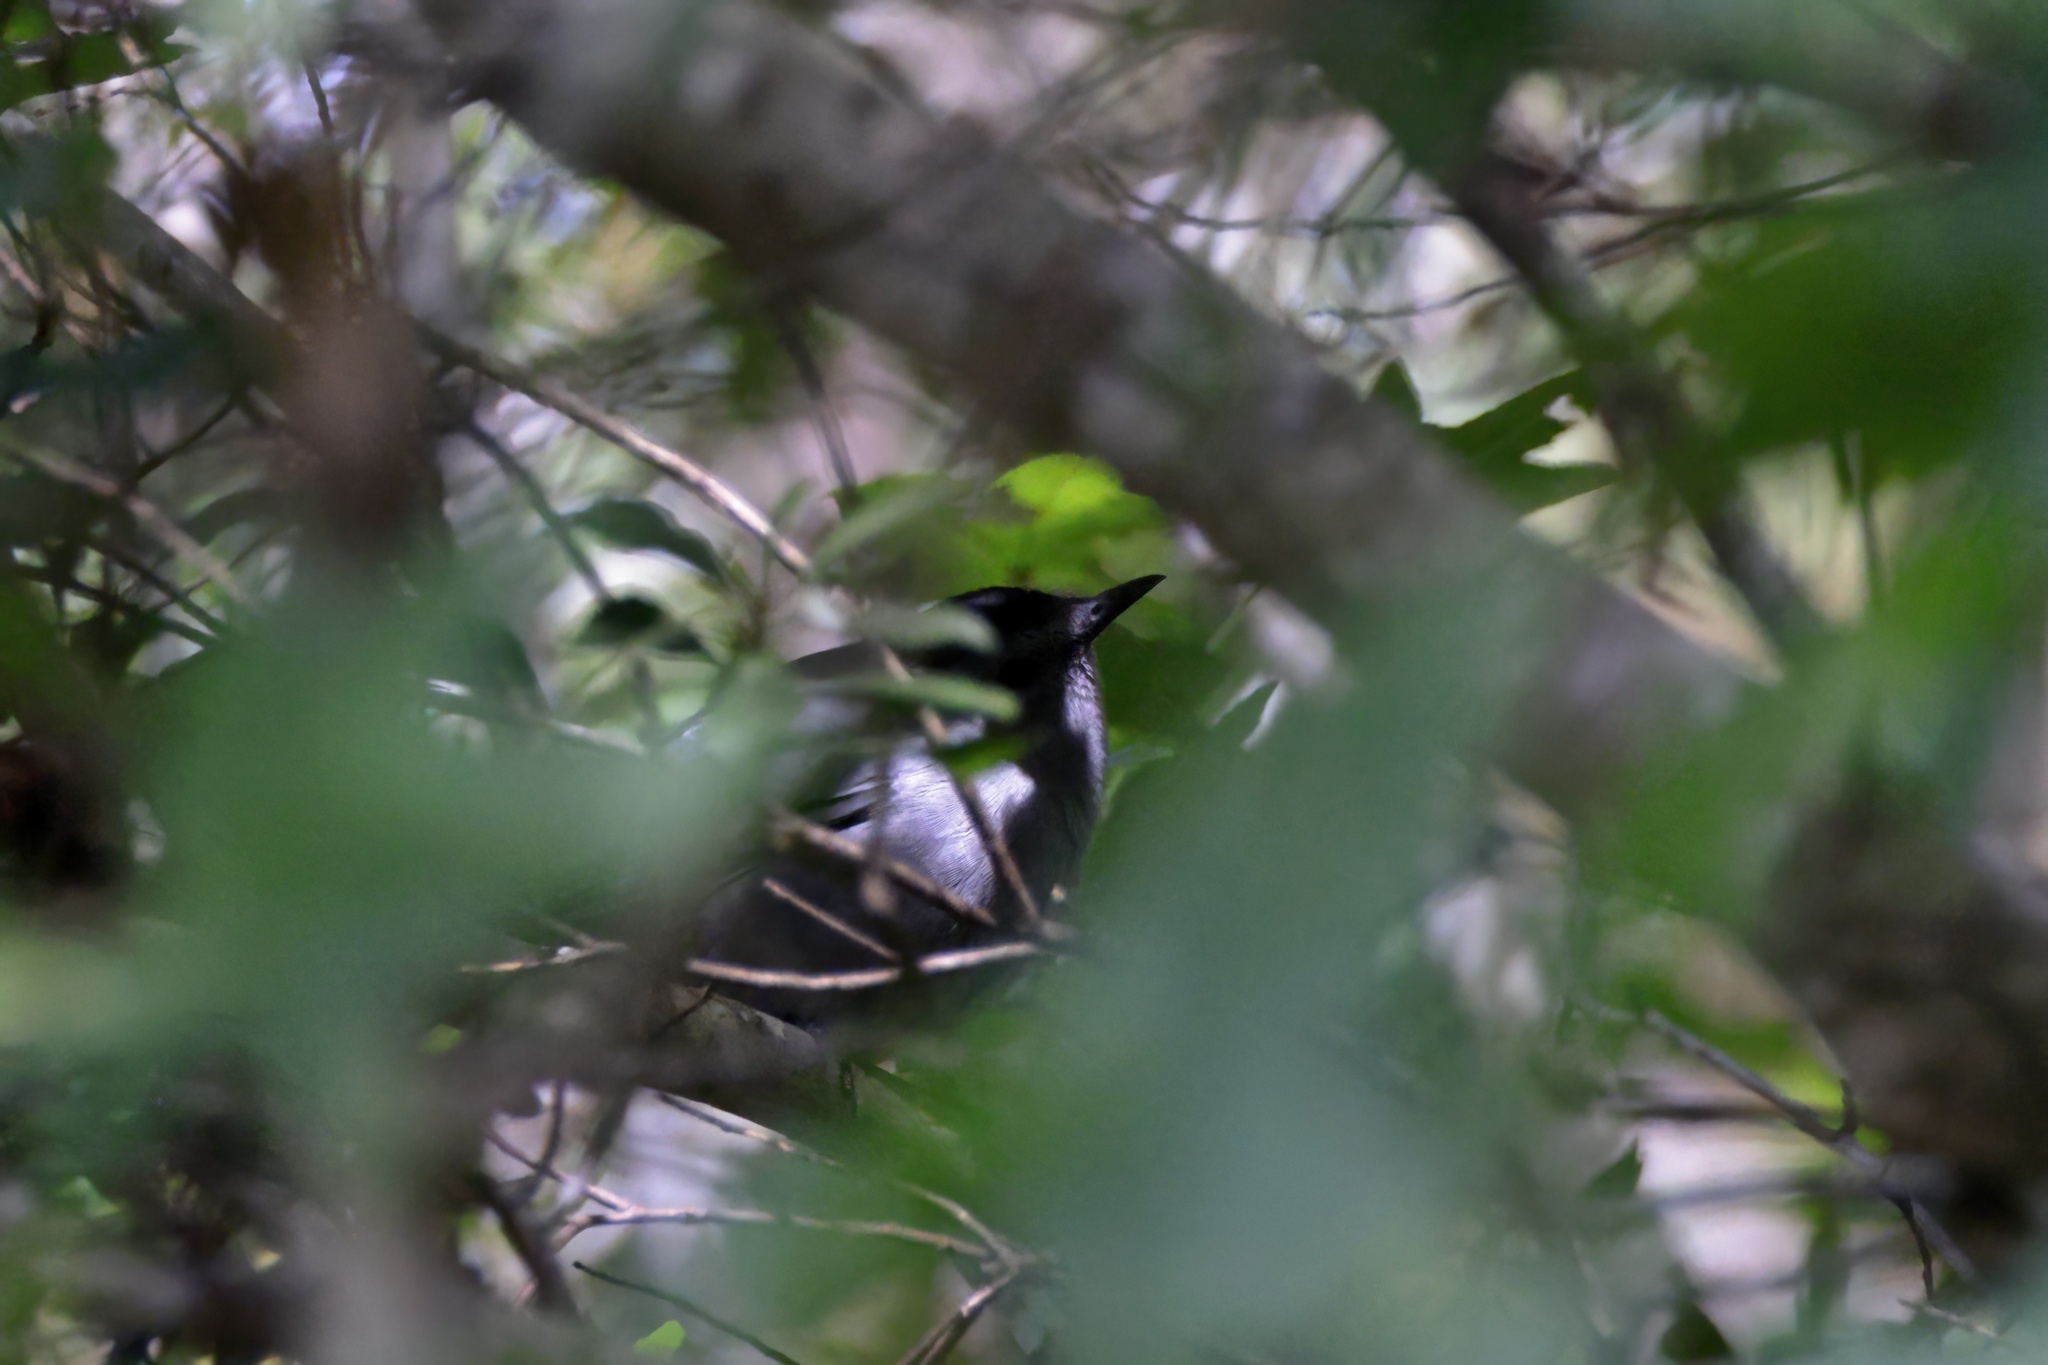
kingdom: Animalia
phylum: Chordata
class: Aves
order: Passeriformes
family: Mimidae
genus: Dumetella
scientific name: Dumetella carolinensis
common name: Gray catbird
